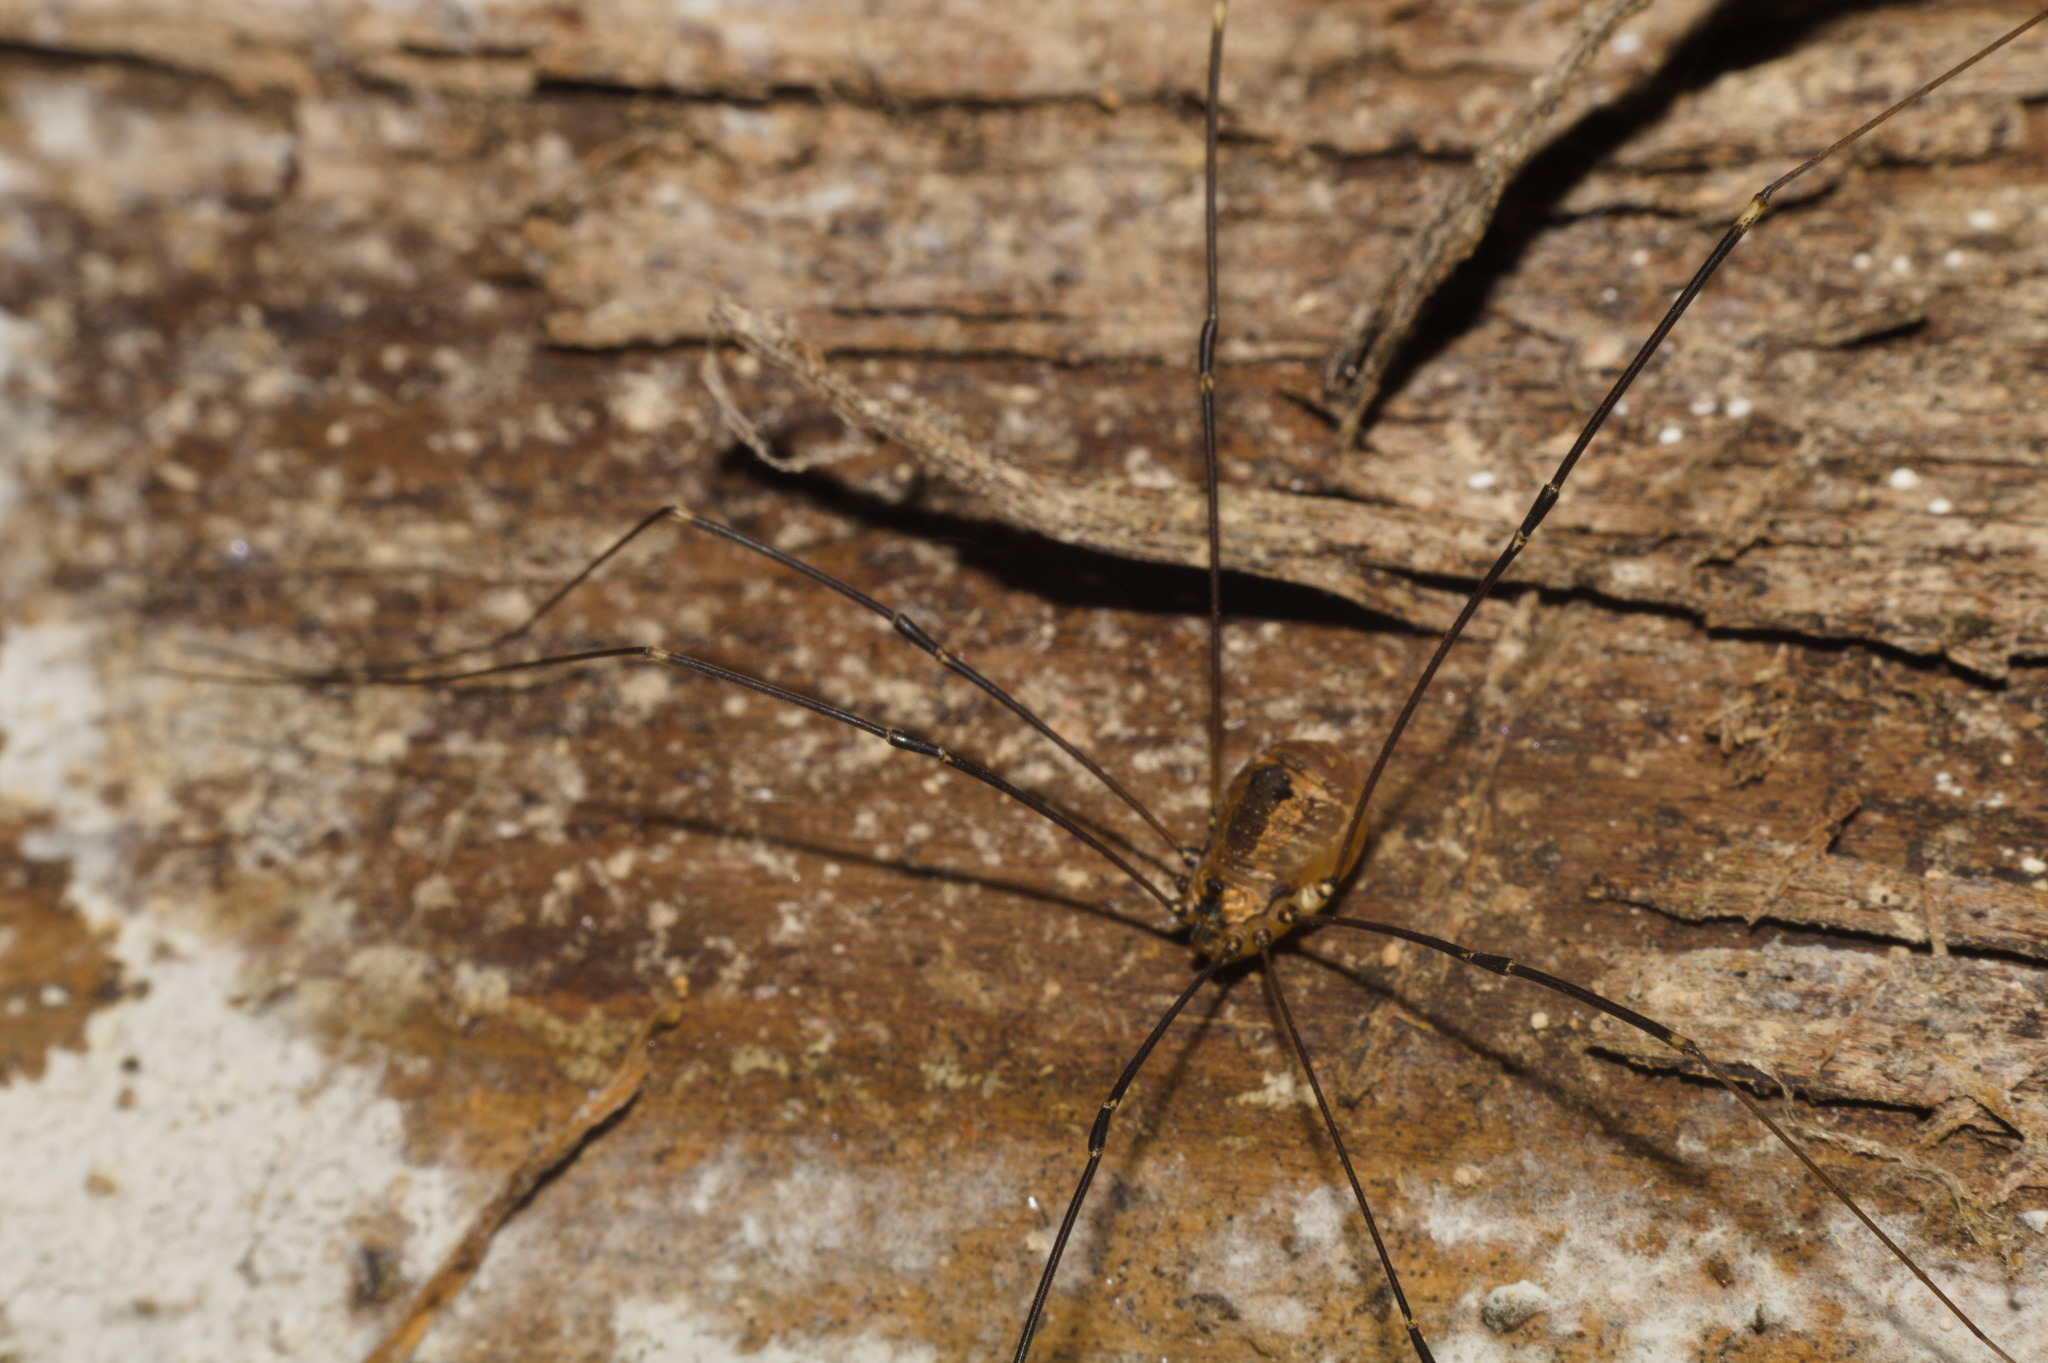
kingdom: Animalia
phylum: Arthropoda
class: Arachnida
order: Opiliones
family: Sclerosomatidae
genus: Leiobunum
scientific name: Leiobunum rotundum
